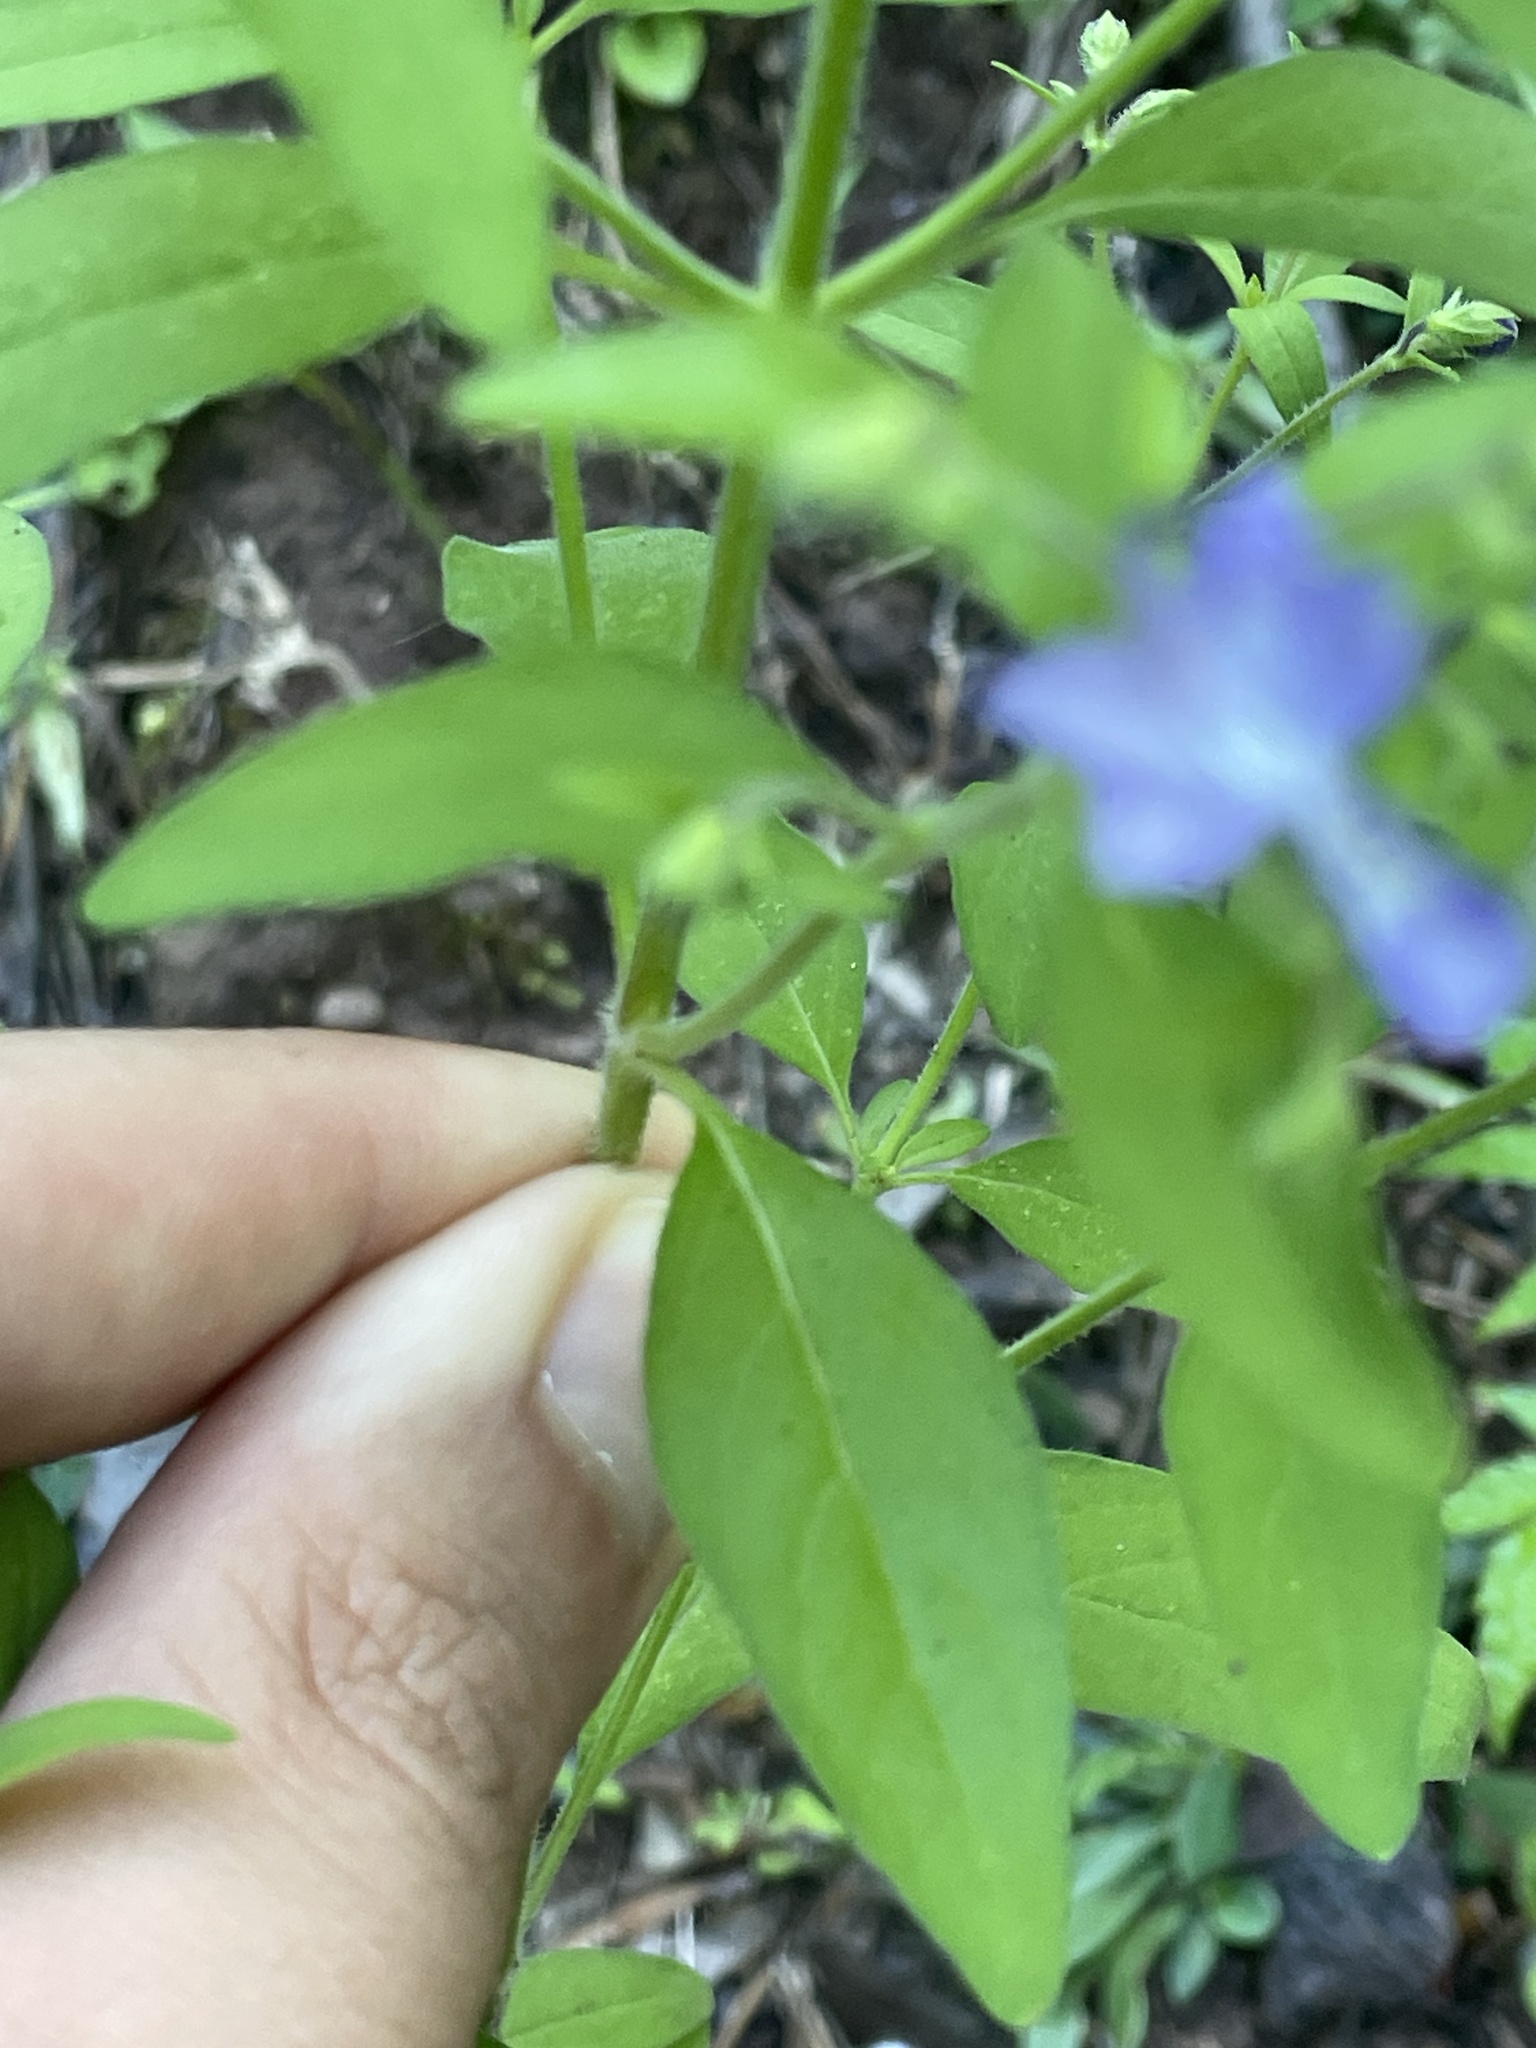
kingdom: Plantae
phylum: Tracheophyta
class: Magnoliopsida
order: Lamiales
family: Lamiaceae
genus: Trichostema
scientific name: Trichostema dichotomum
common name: Bastard pennyroyal
